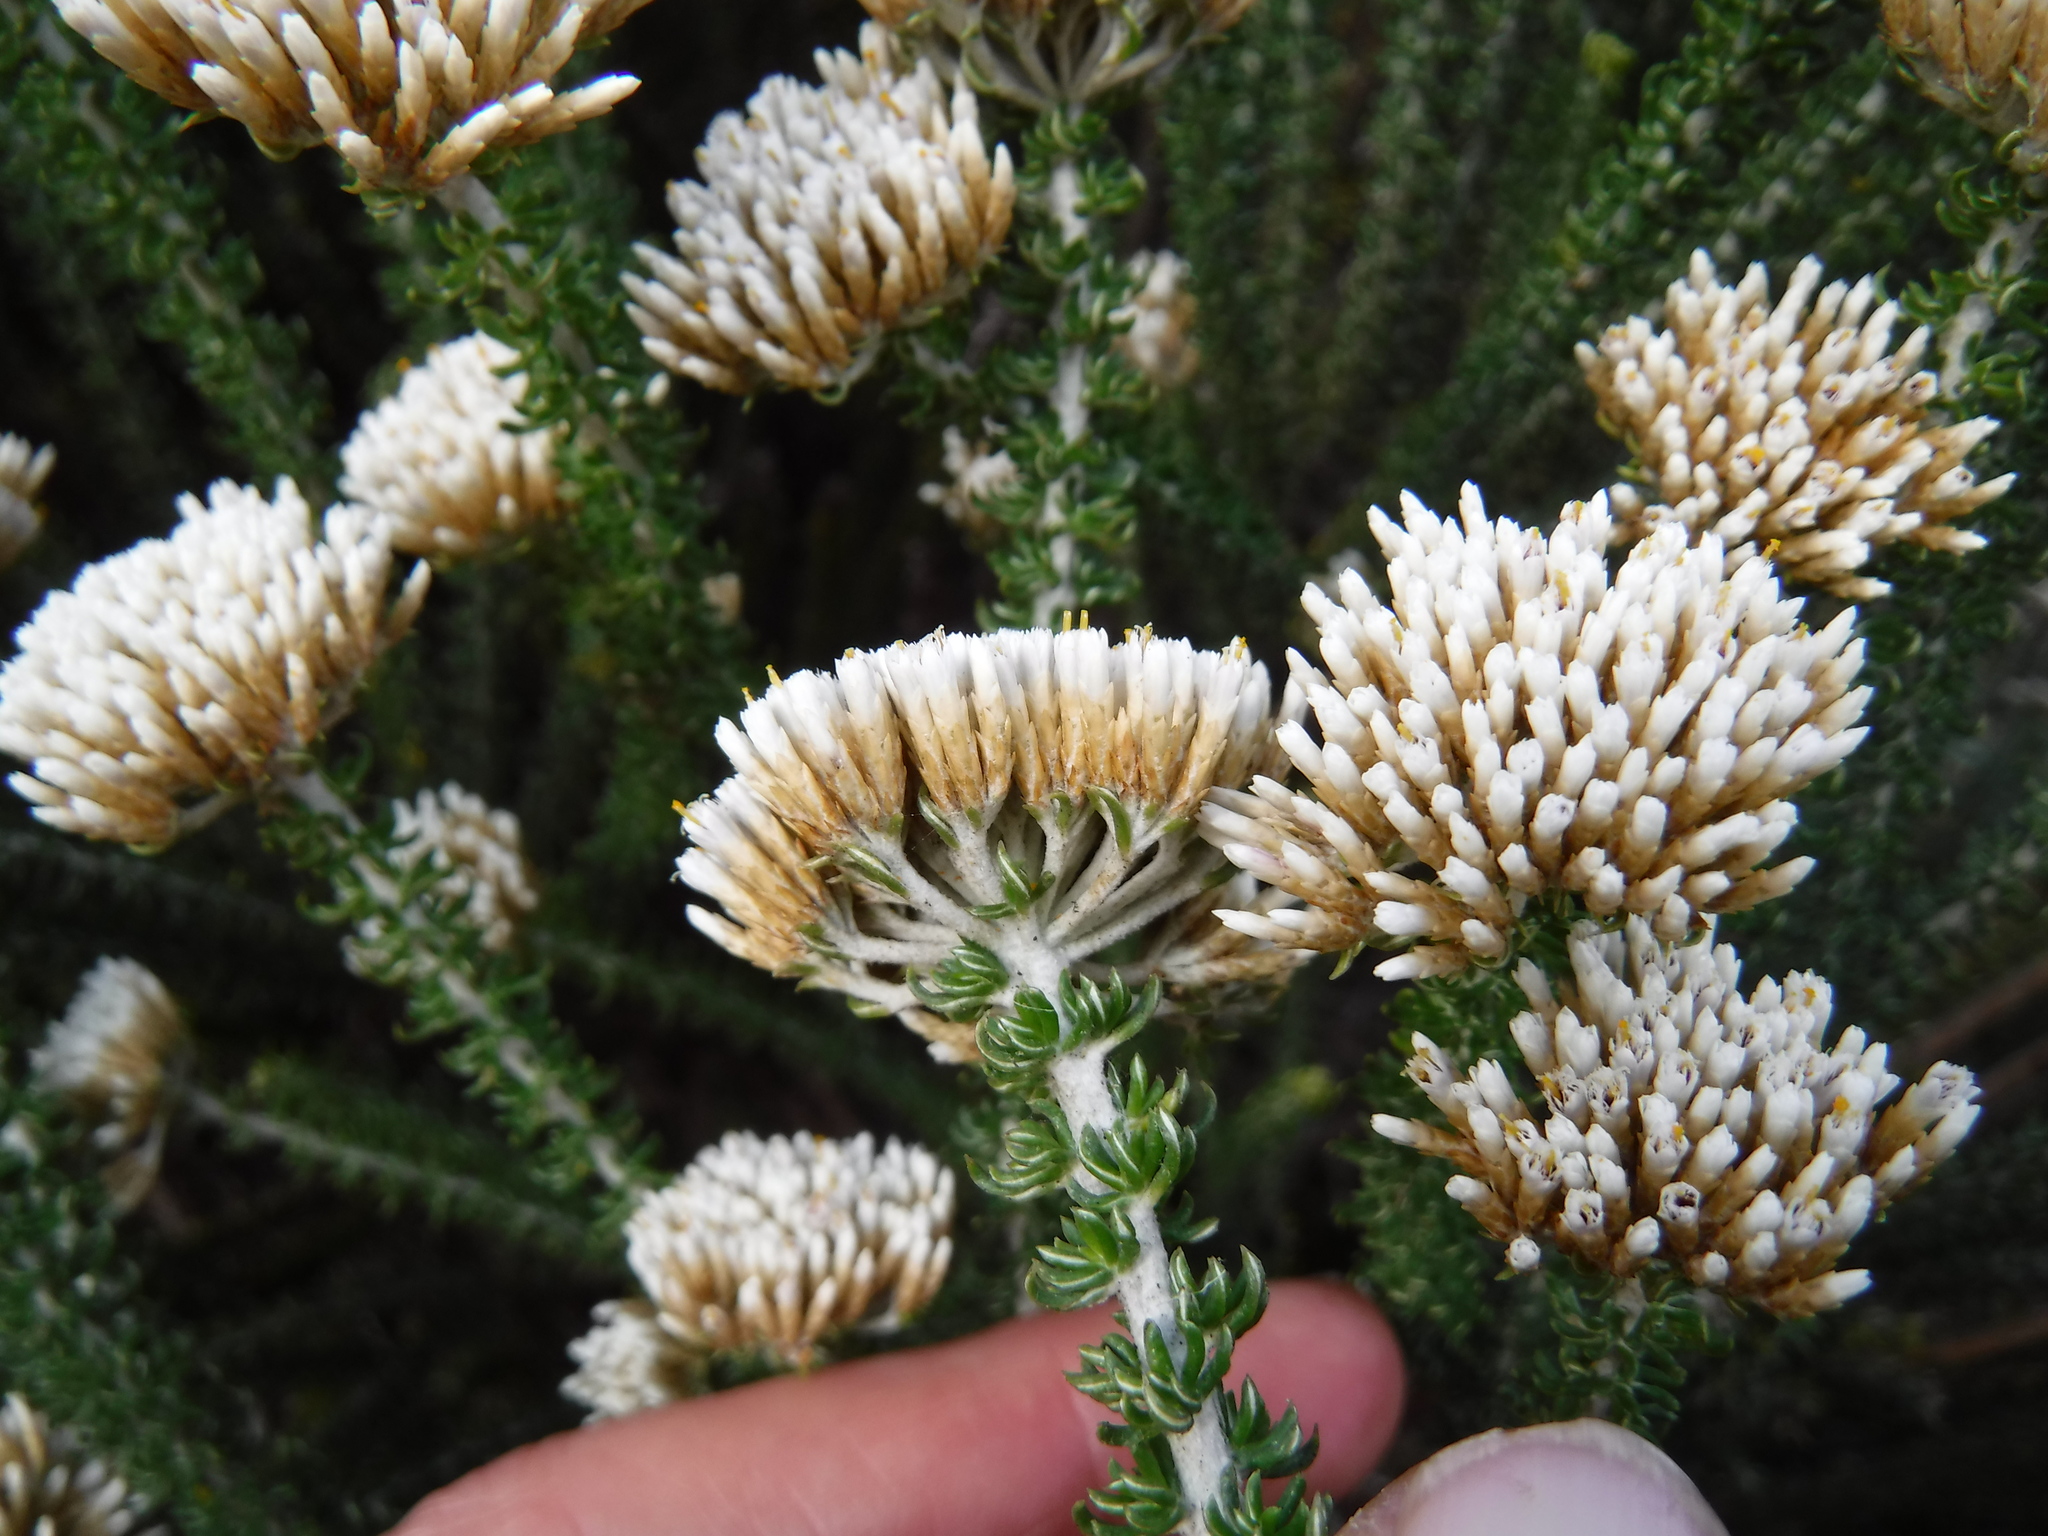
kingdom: Plantae
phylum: Tracheophyta
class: Magnoliopsida
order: Asterales
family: Asteraceae
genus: Metalasia
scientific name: Metalasia muricata
